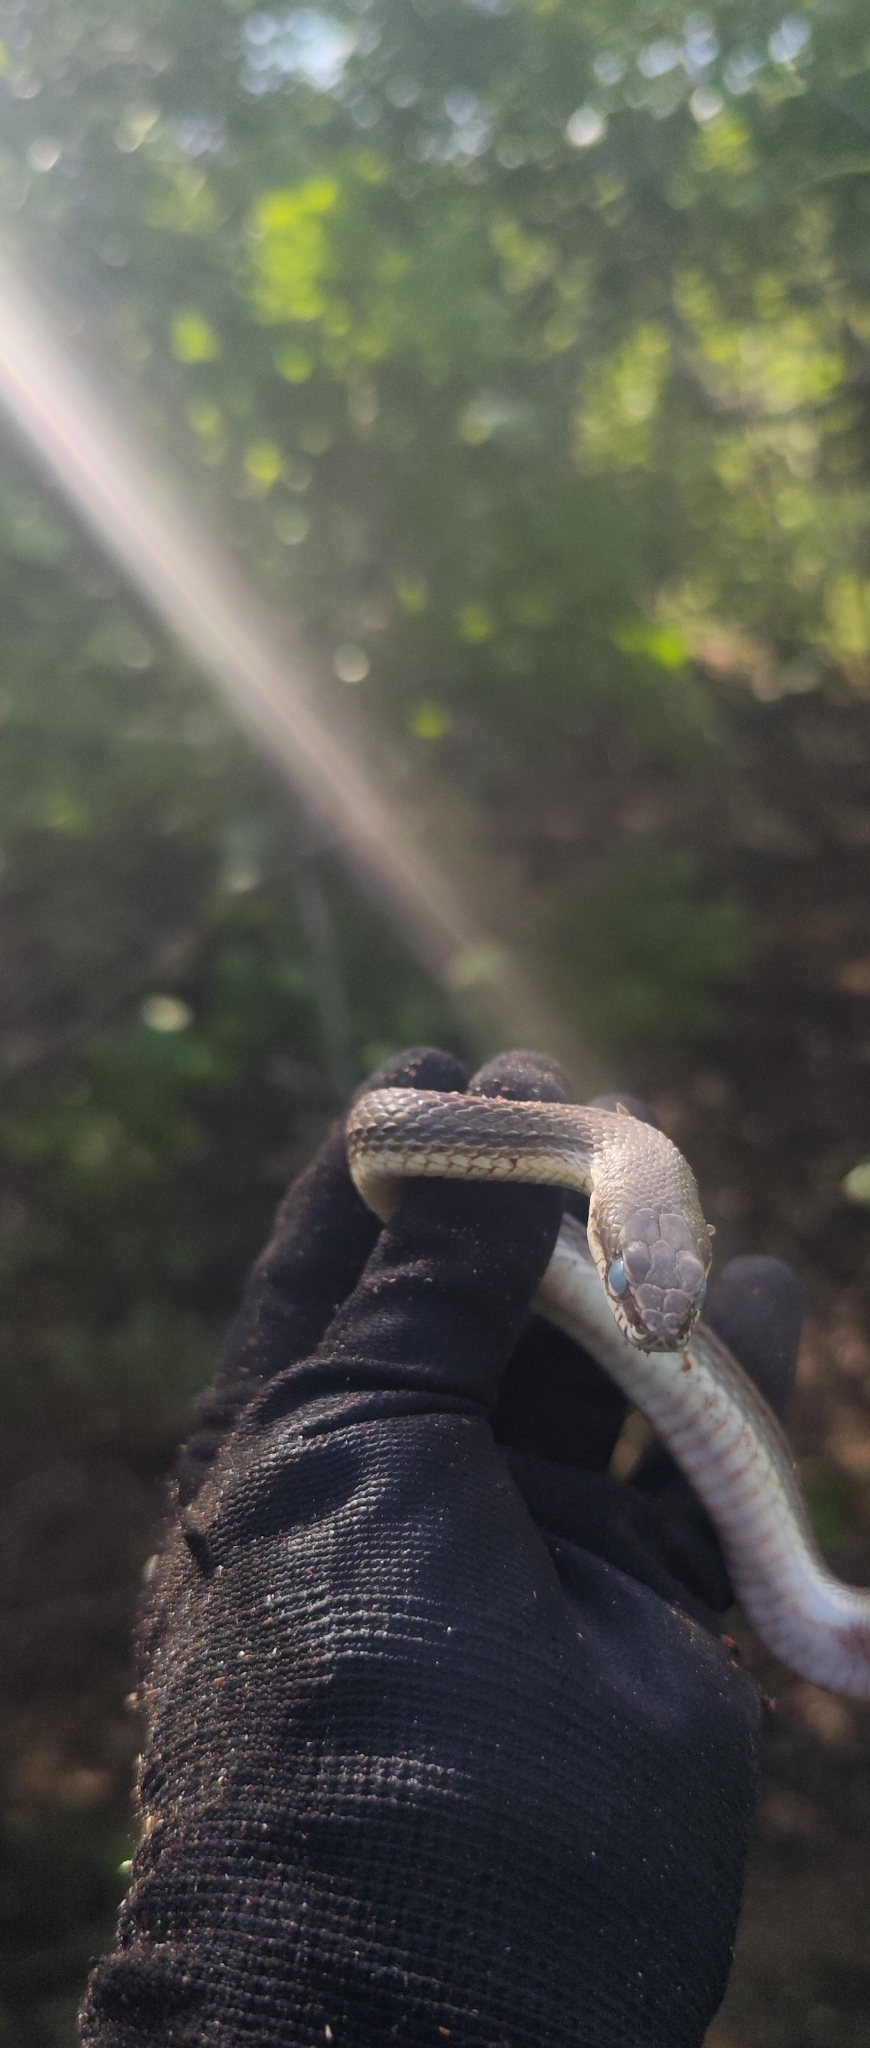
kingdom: Animalia
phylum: Chordata
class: Squamata
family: Colubridae
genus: Philodryas
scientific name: Philodryas nattereri
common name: Paraguay green racer
